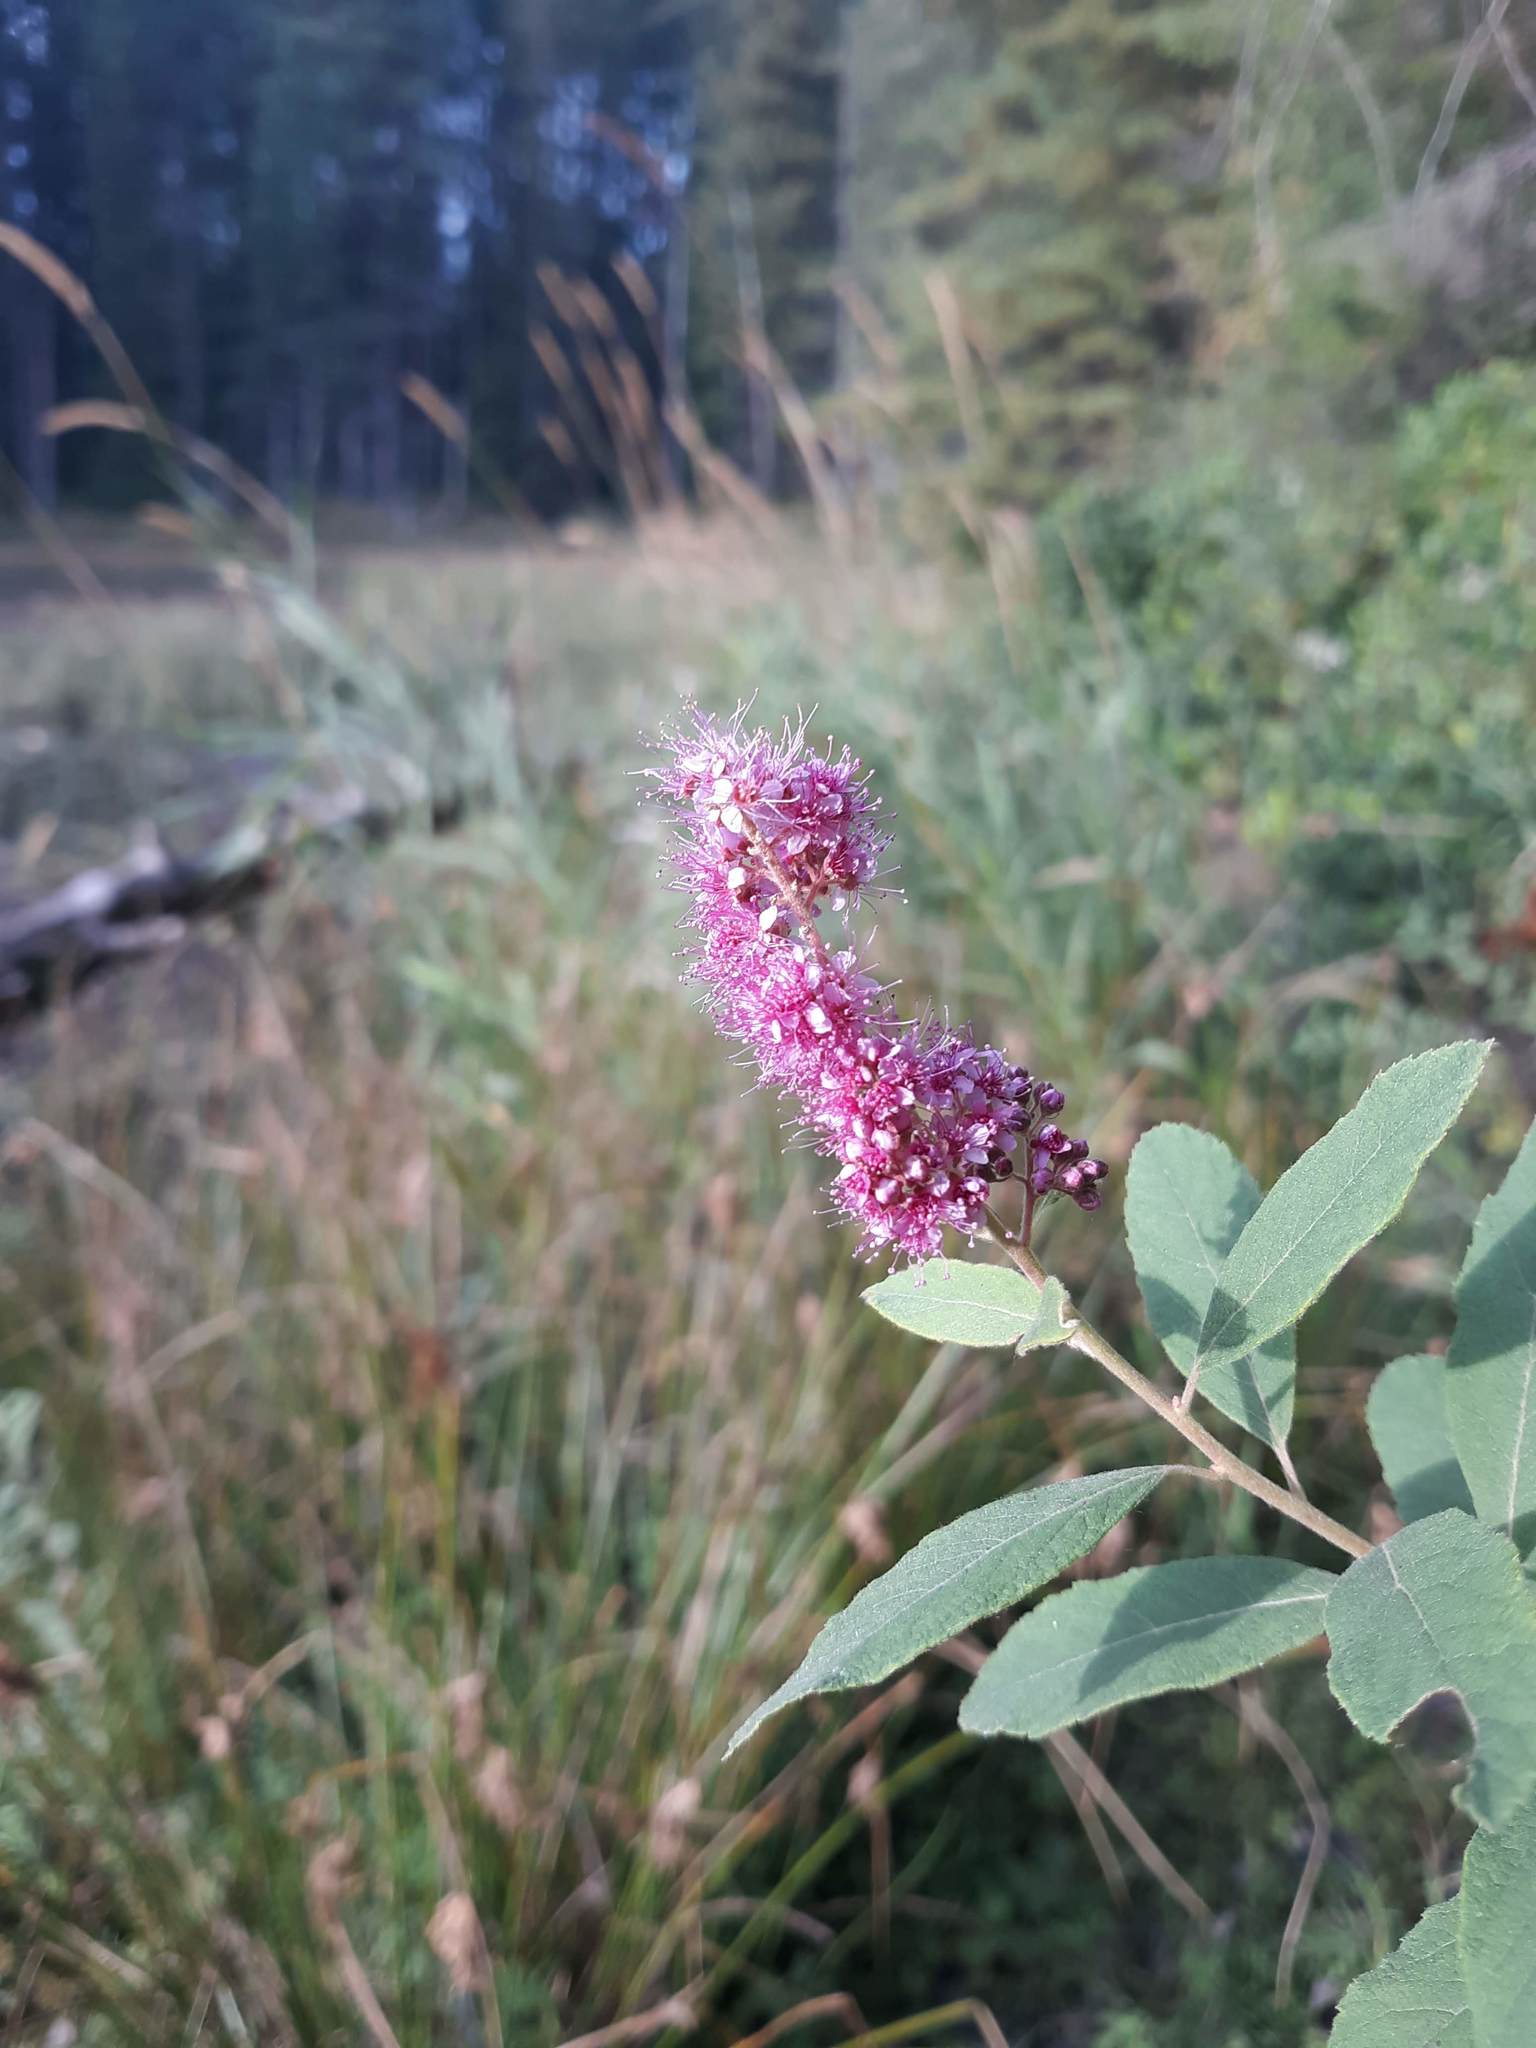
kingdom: Plantae
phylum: Tracheophyta
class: Magnoliopsida
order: Rosales
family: Rosaceae
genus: Spiraea
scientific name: Spiraea douglasii
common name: Steeplebush
